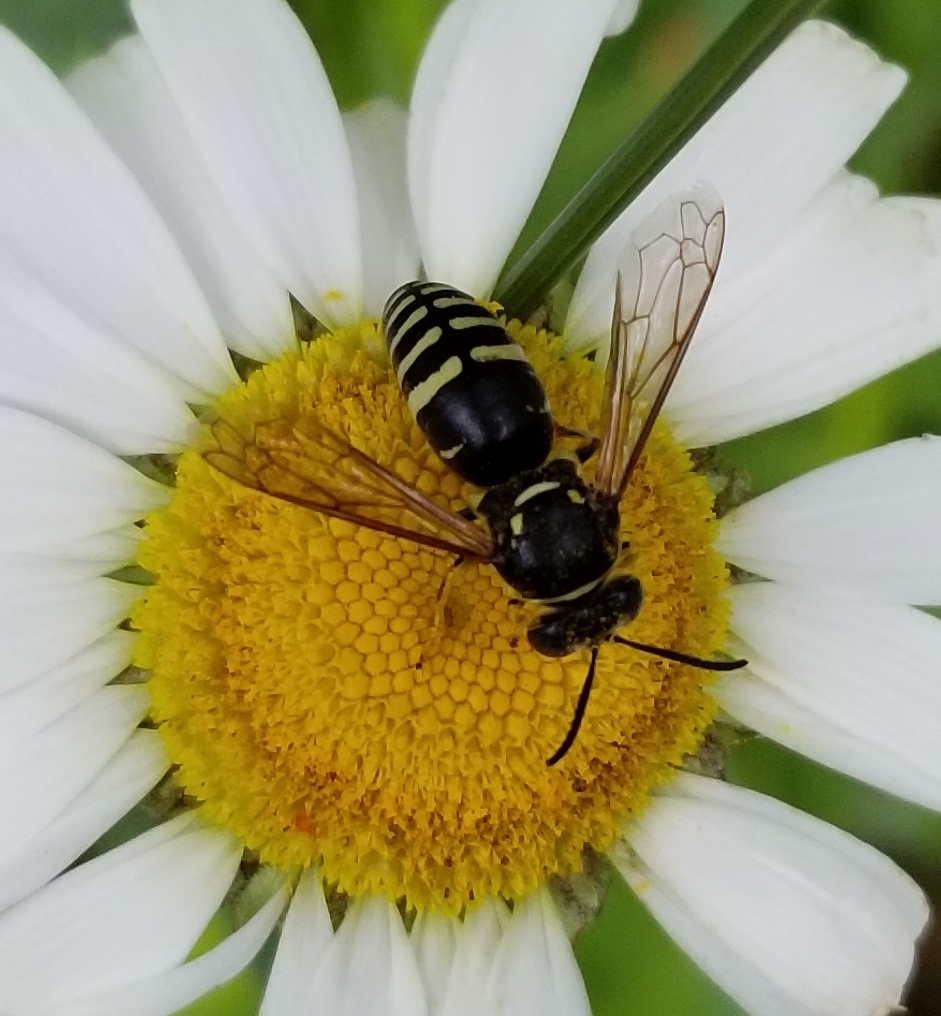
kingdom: Animalia
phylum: Arthropoda
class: Insecta
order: Hymenoptera
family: Crabronidae
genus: Bicyrtes
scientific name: Bicyrtes ventralis
